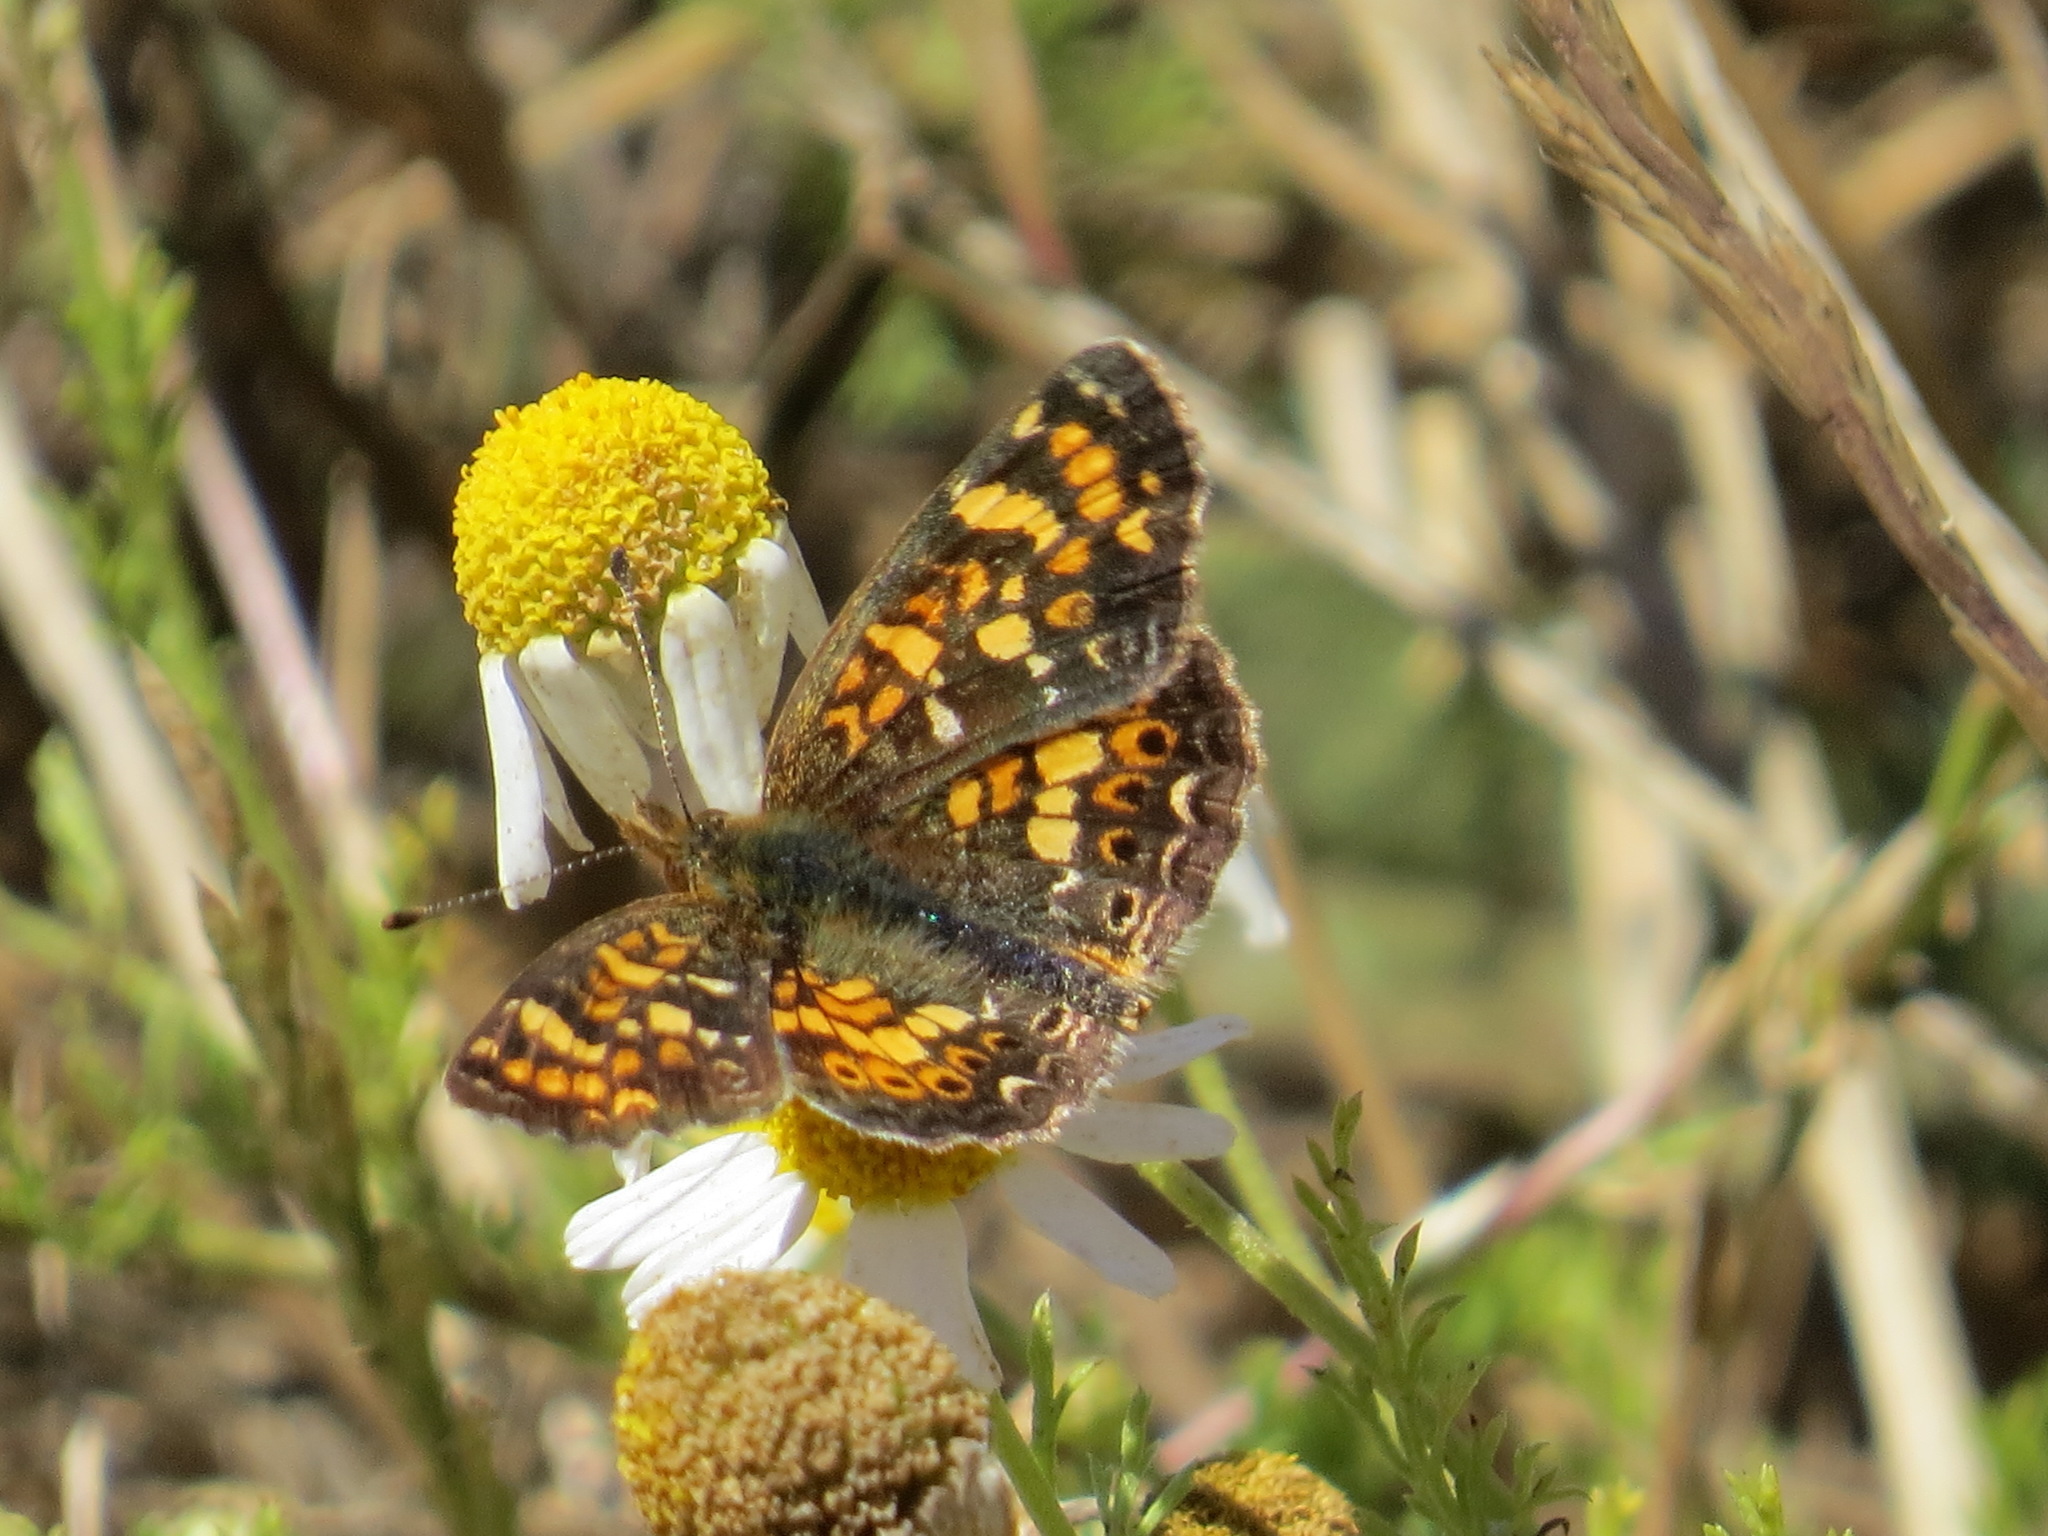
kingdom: Animalia
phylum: Arthropoda
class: Insecta
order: Lepidoptera
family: Nymphalidae
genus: Phyciodes
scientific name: Phyciodes tharos
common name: Pearl crescent
